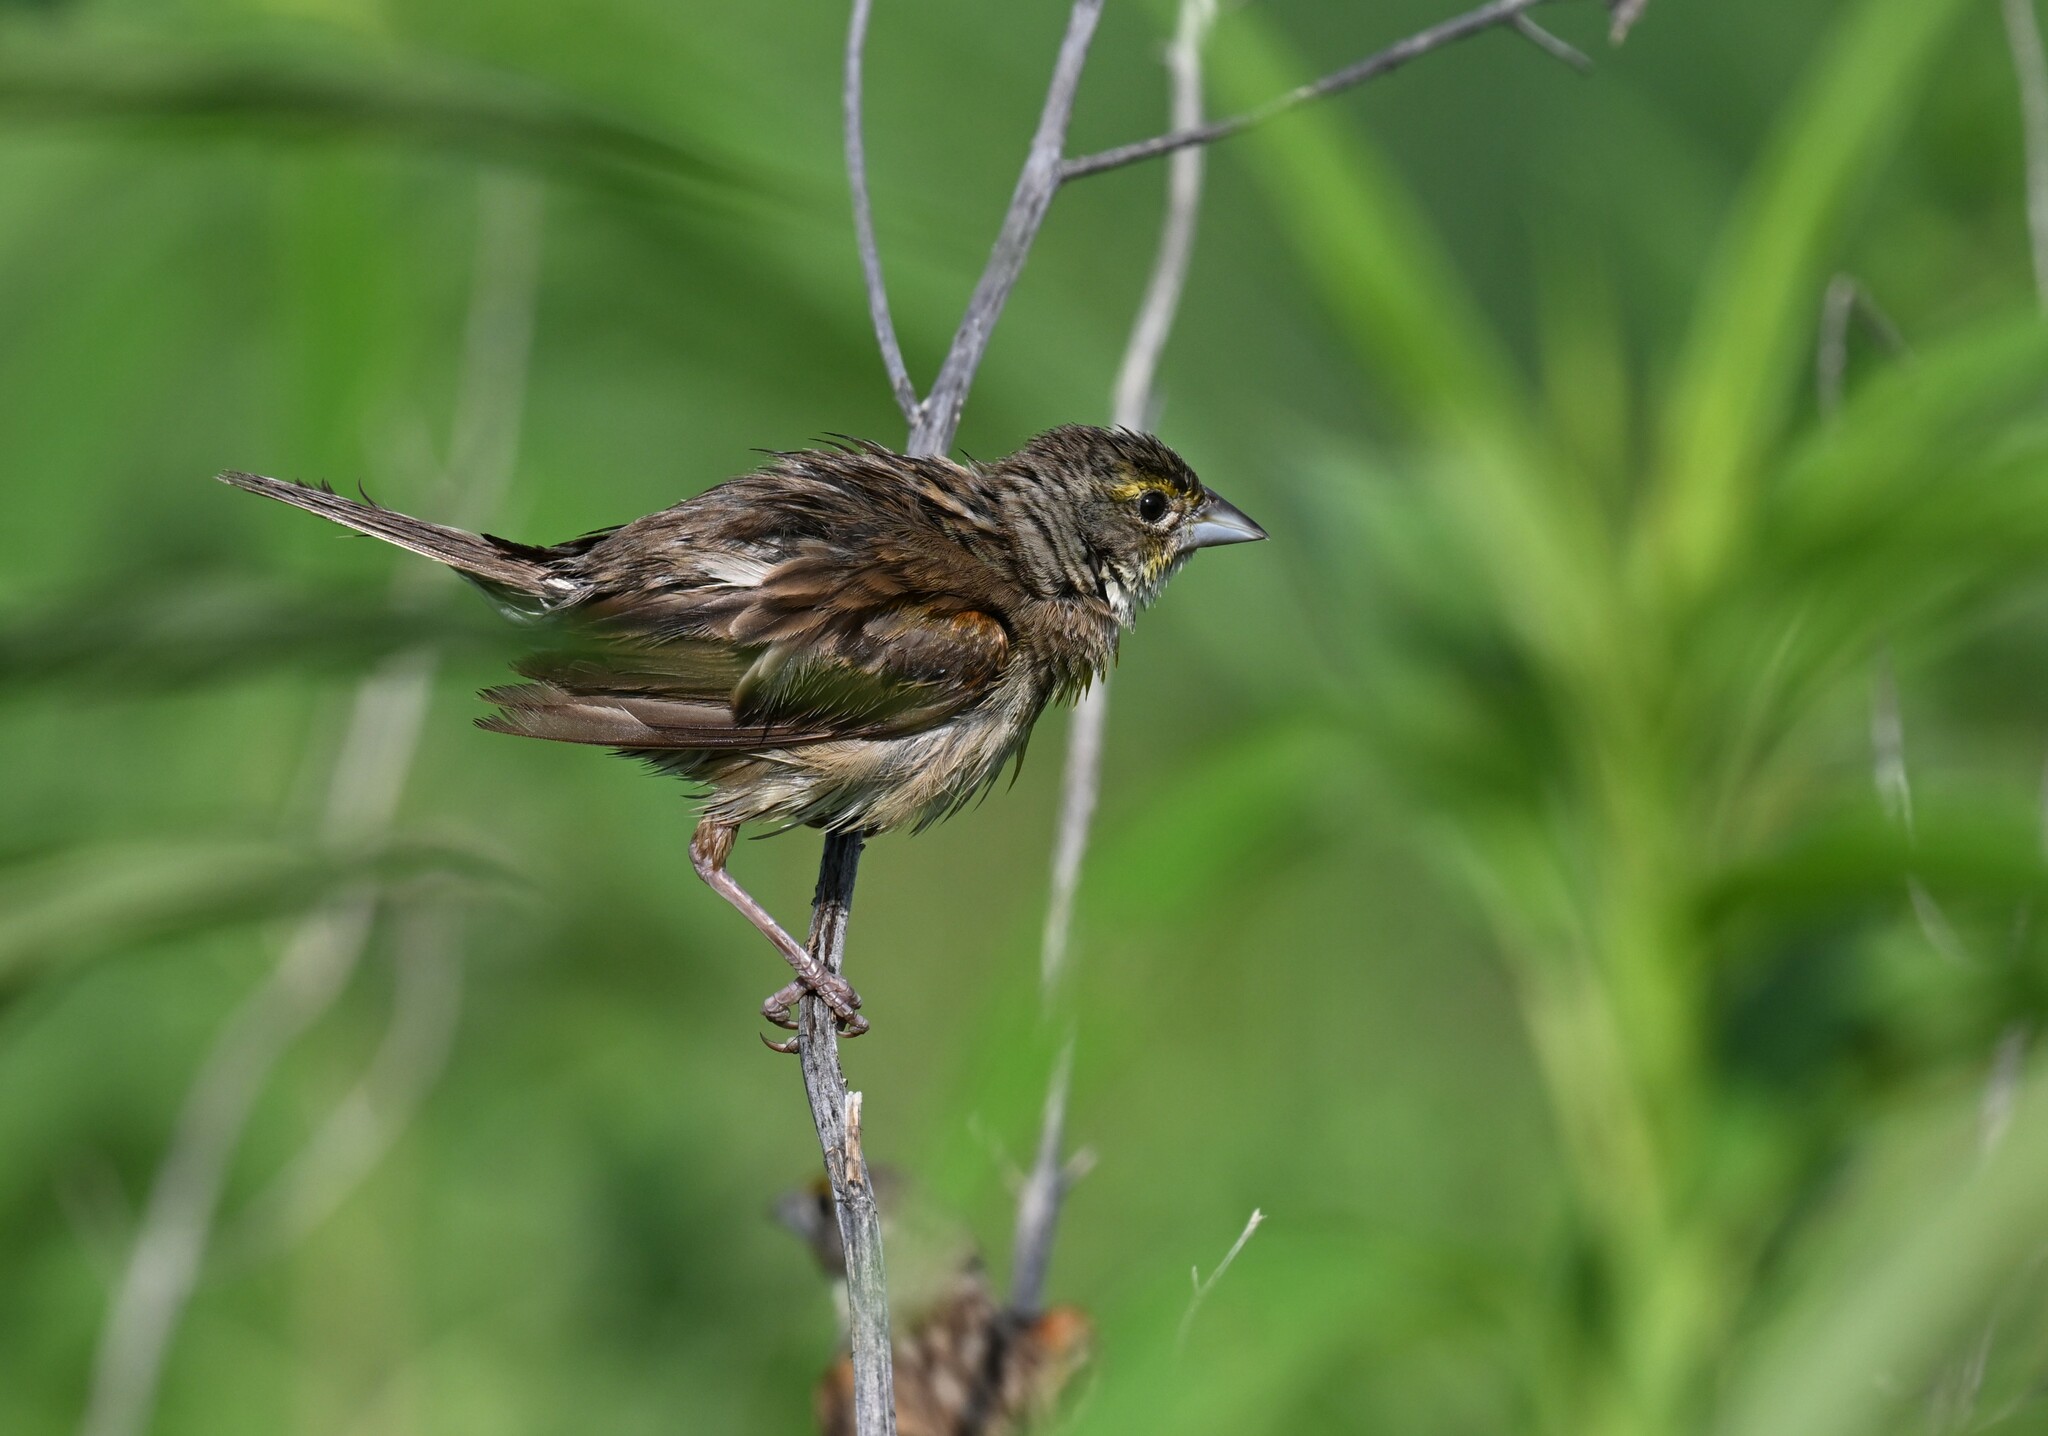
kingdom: Animalia
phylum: Chordata
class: Aves
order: Passeriformes
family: Cardinalidae
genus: Spiza
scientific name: Spiza americana
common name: Dickcissel
